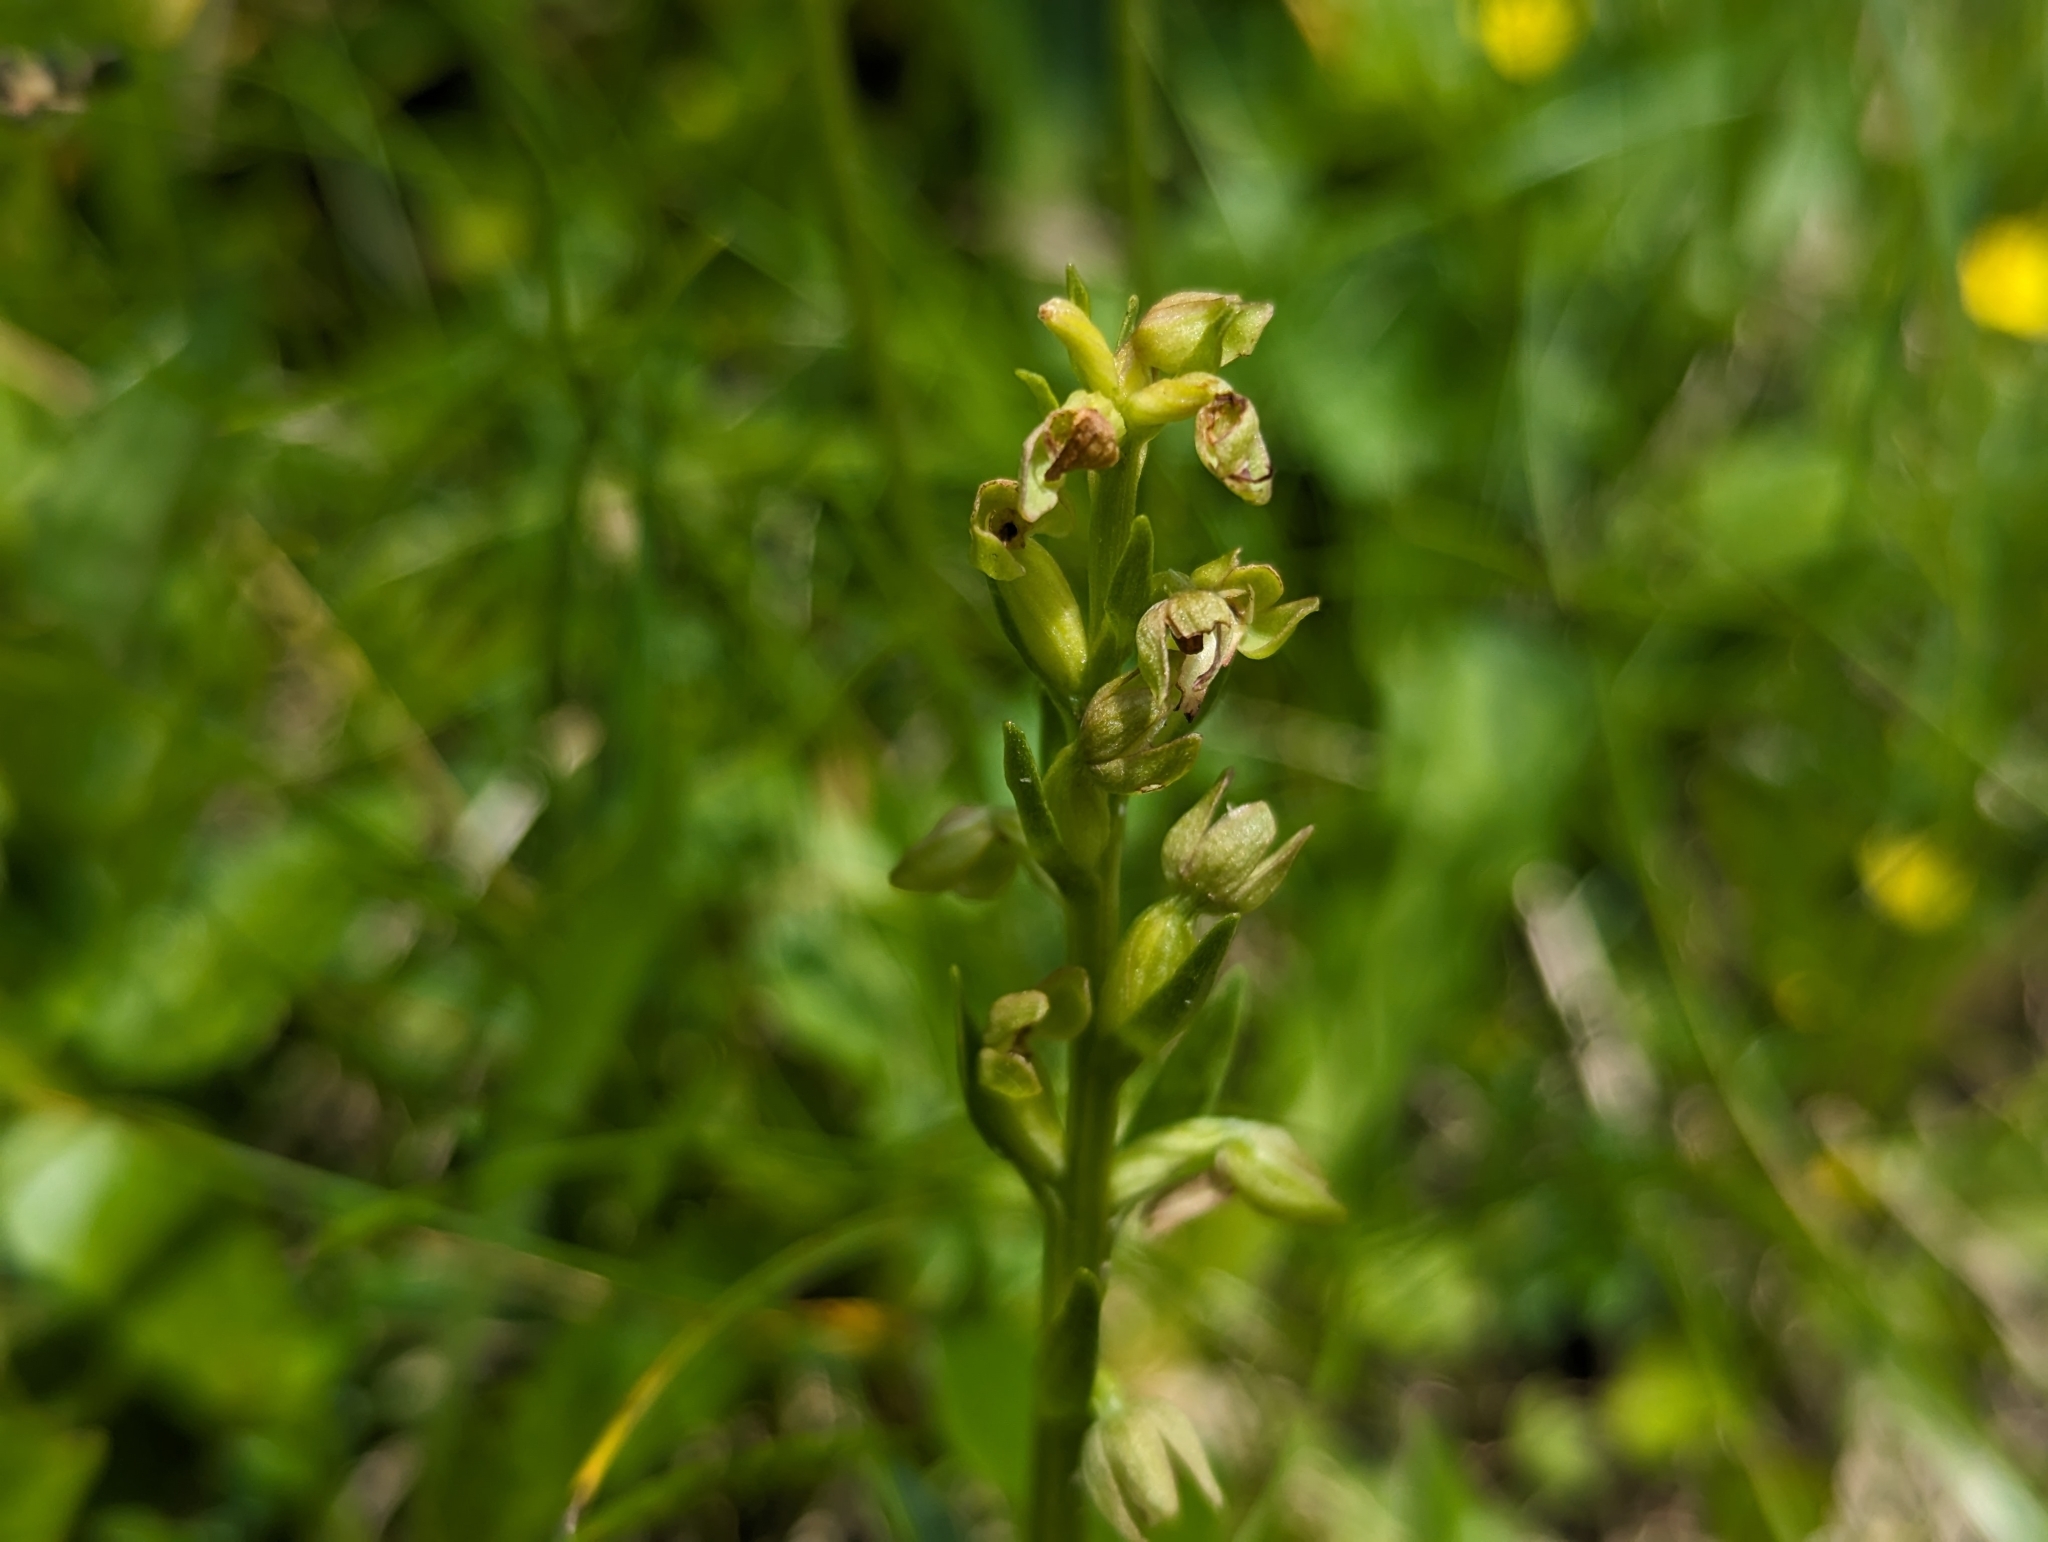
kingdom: Plantae
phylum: Tracheophyta
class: Liliopsida
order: Asparagales
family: Orchidaceae
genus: Dactylorhiza
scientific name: Dactylorhiza viridis
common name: Longbract frog orchid
